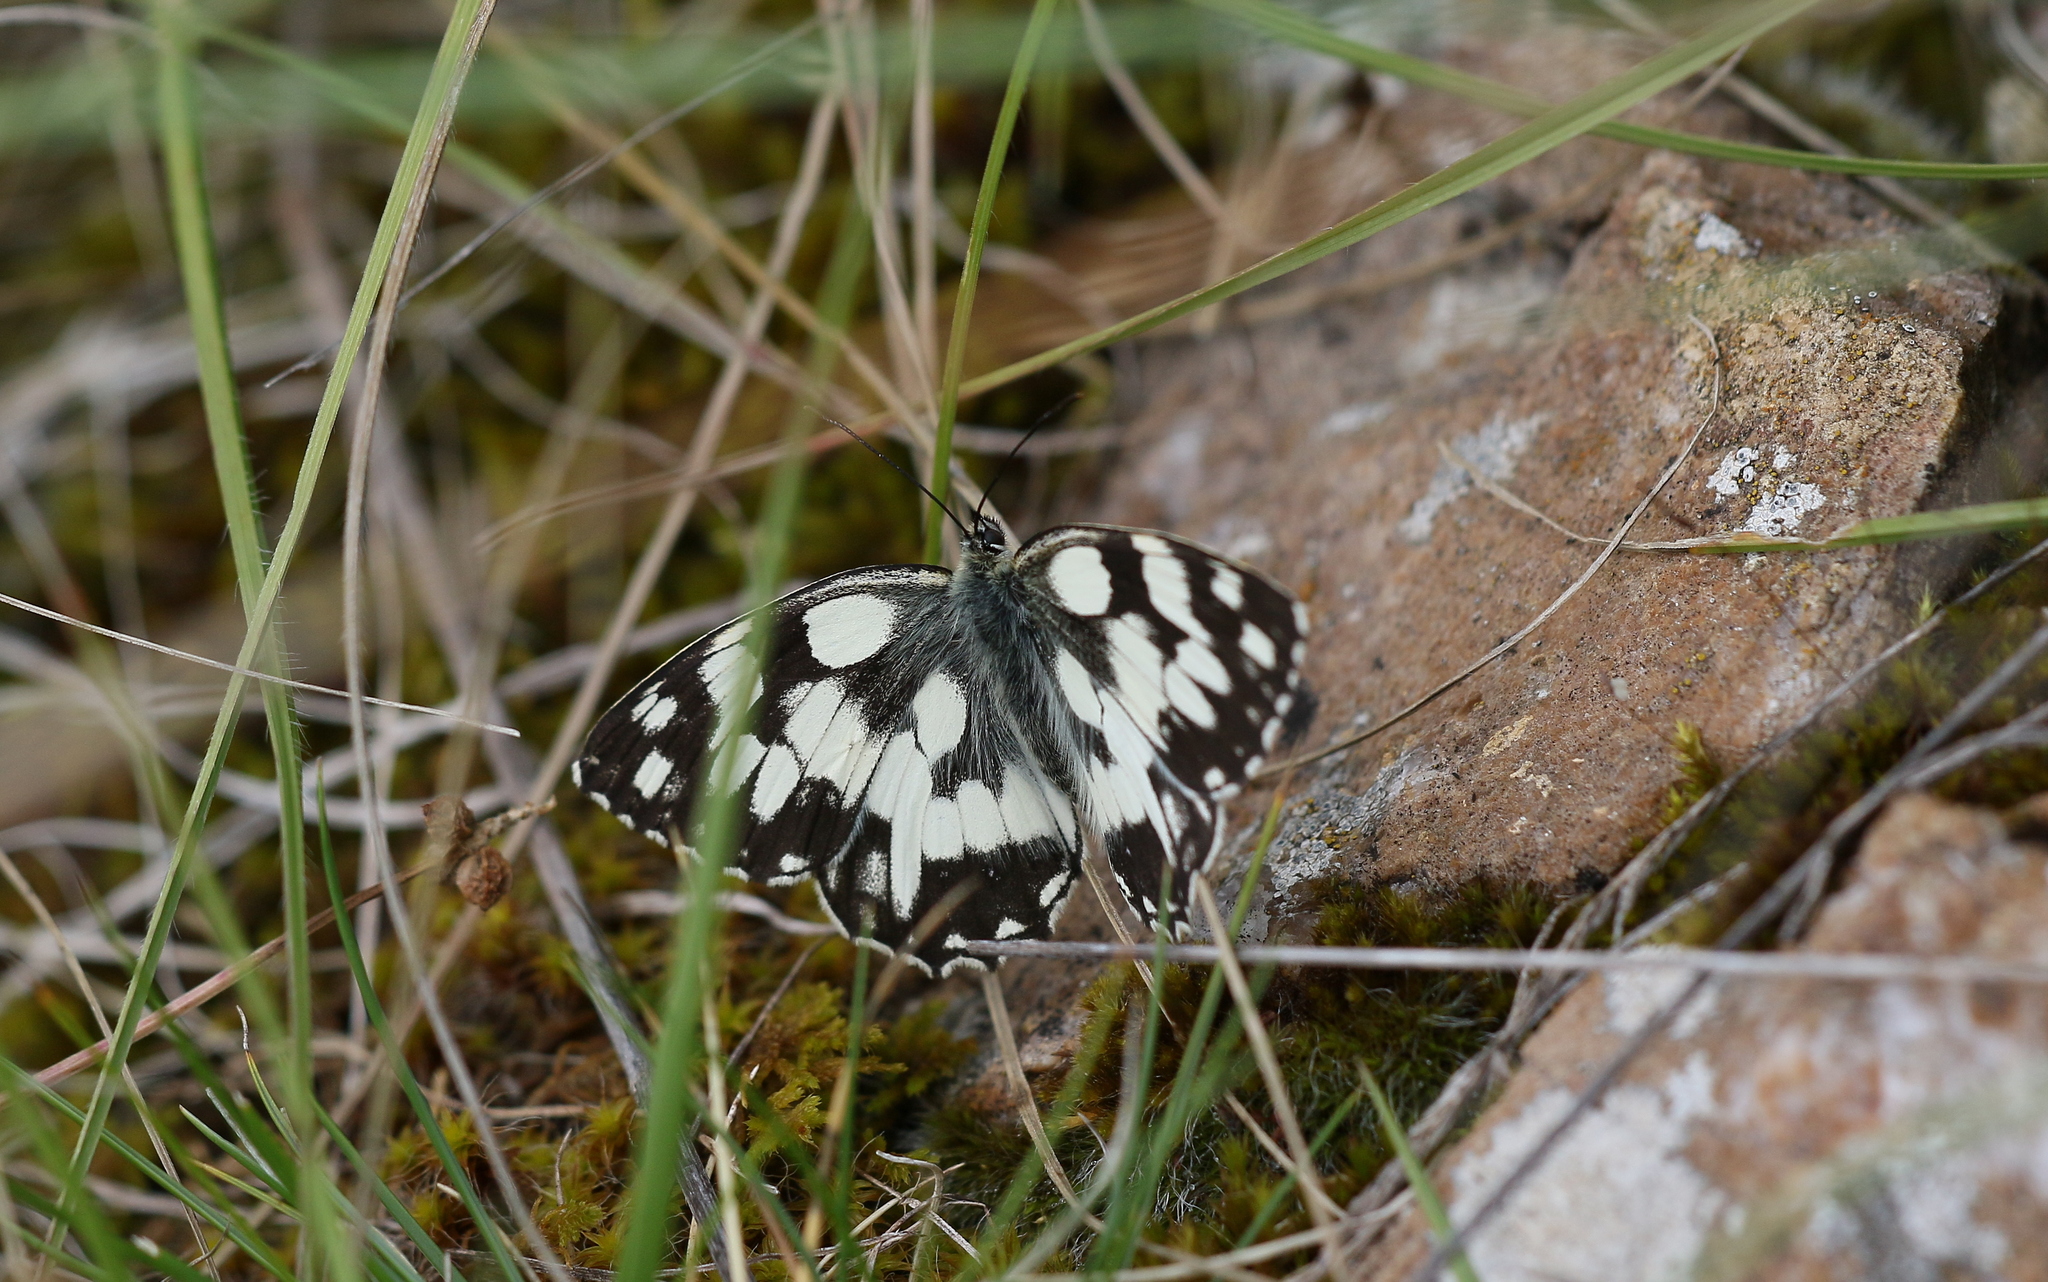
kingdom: Animalia
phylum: Arthropoda
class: Insecta
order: Lepidoptera
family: Nymphalidae
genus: Melanargia
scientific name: Melanargia galathea
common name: Marbled white
